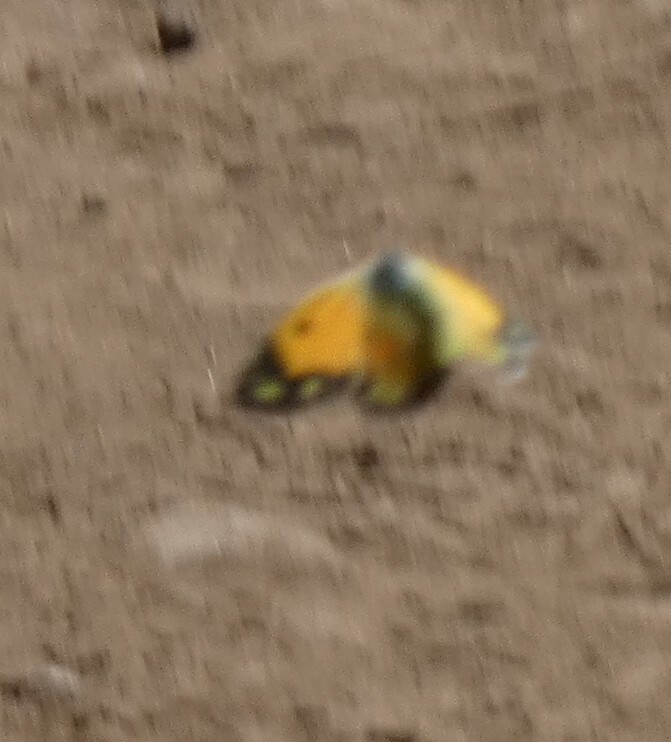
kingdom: Animalia
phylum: Arthropoda
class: Insecta
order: Lepidoptera
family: Pieridae
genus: Colias
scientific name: Colias croceus
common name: Clouded yellow
